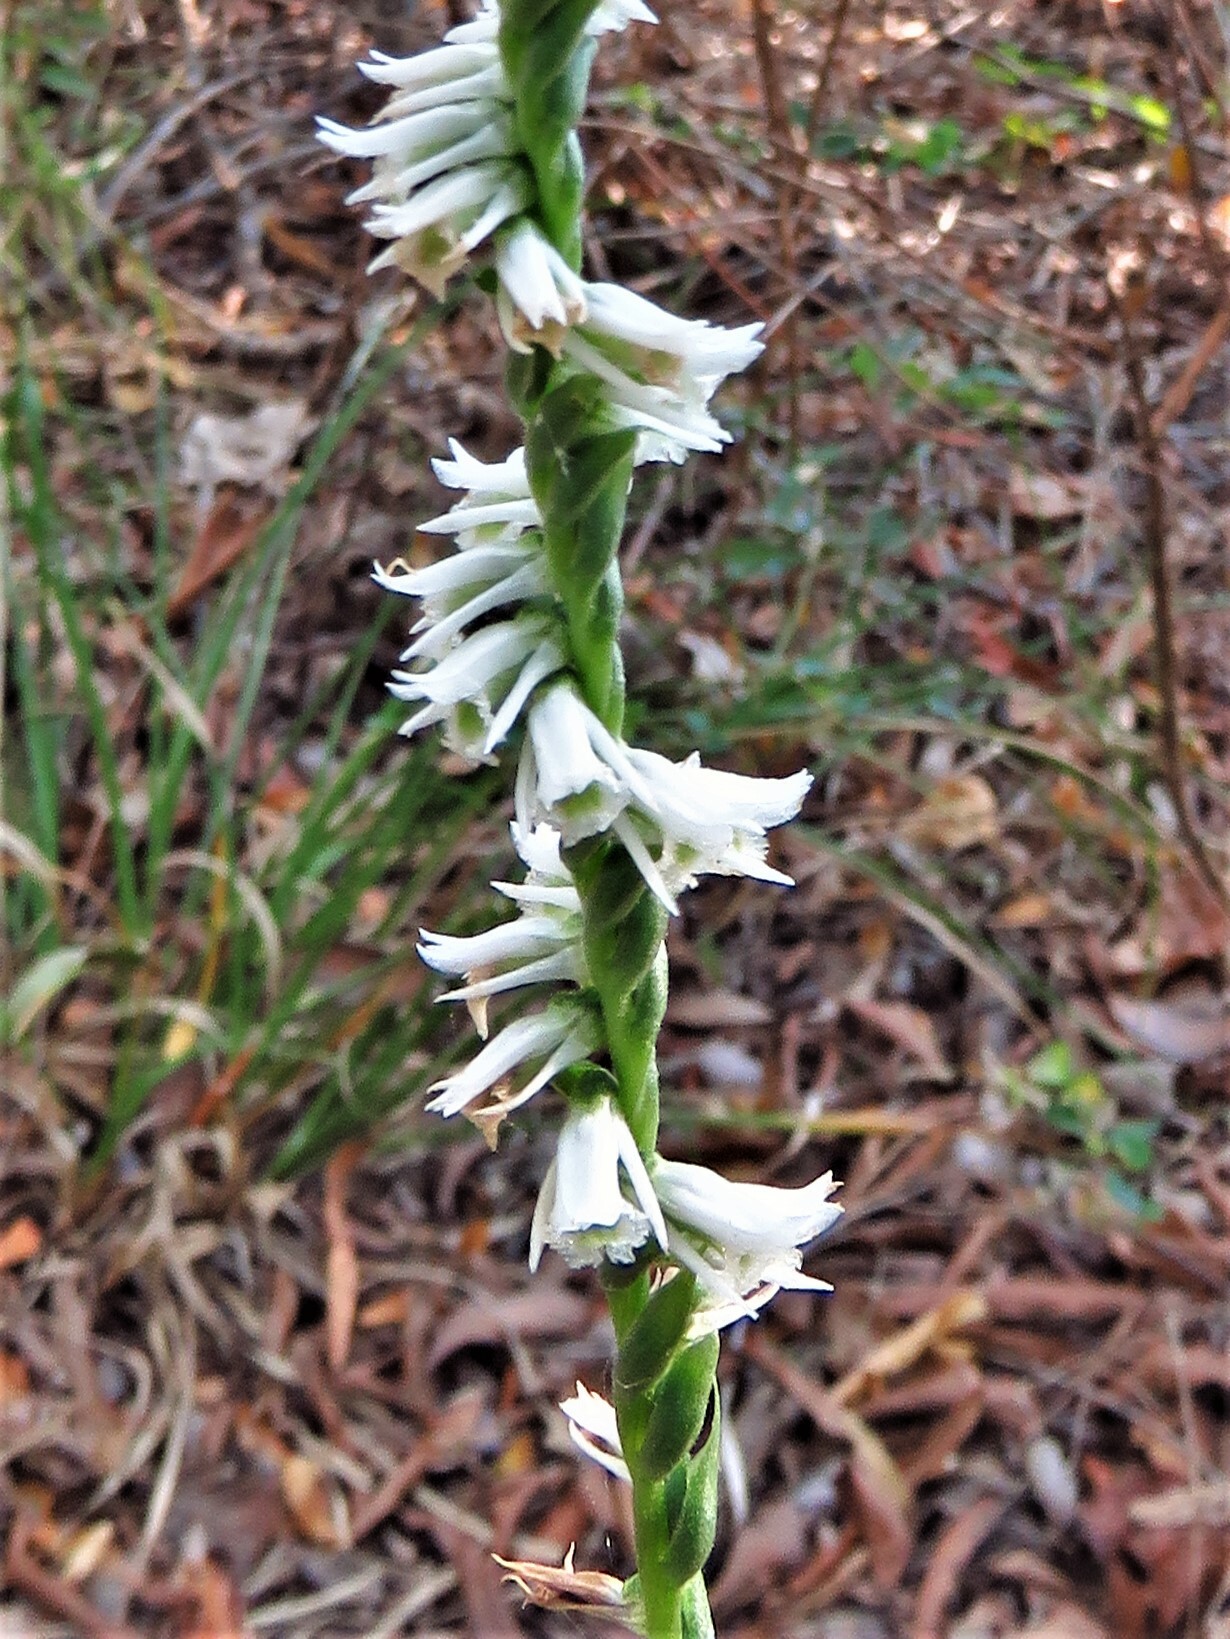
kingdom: Plantae
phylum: Tracheophyta
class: Liliopsida
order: Asparagales
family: Orchidaceae
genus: Spiranthes
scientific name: Spiranthes lacera
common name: Northern slender ladies'-tresses
